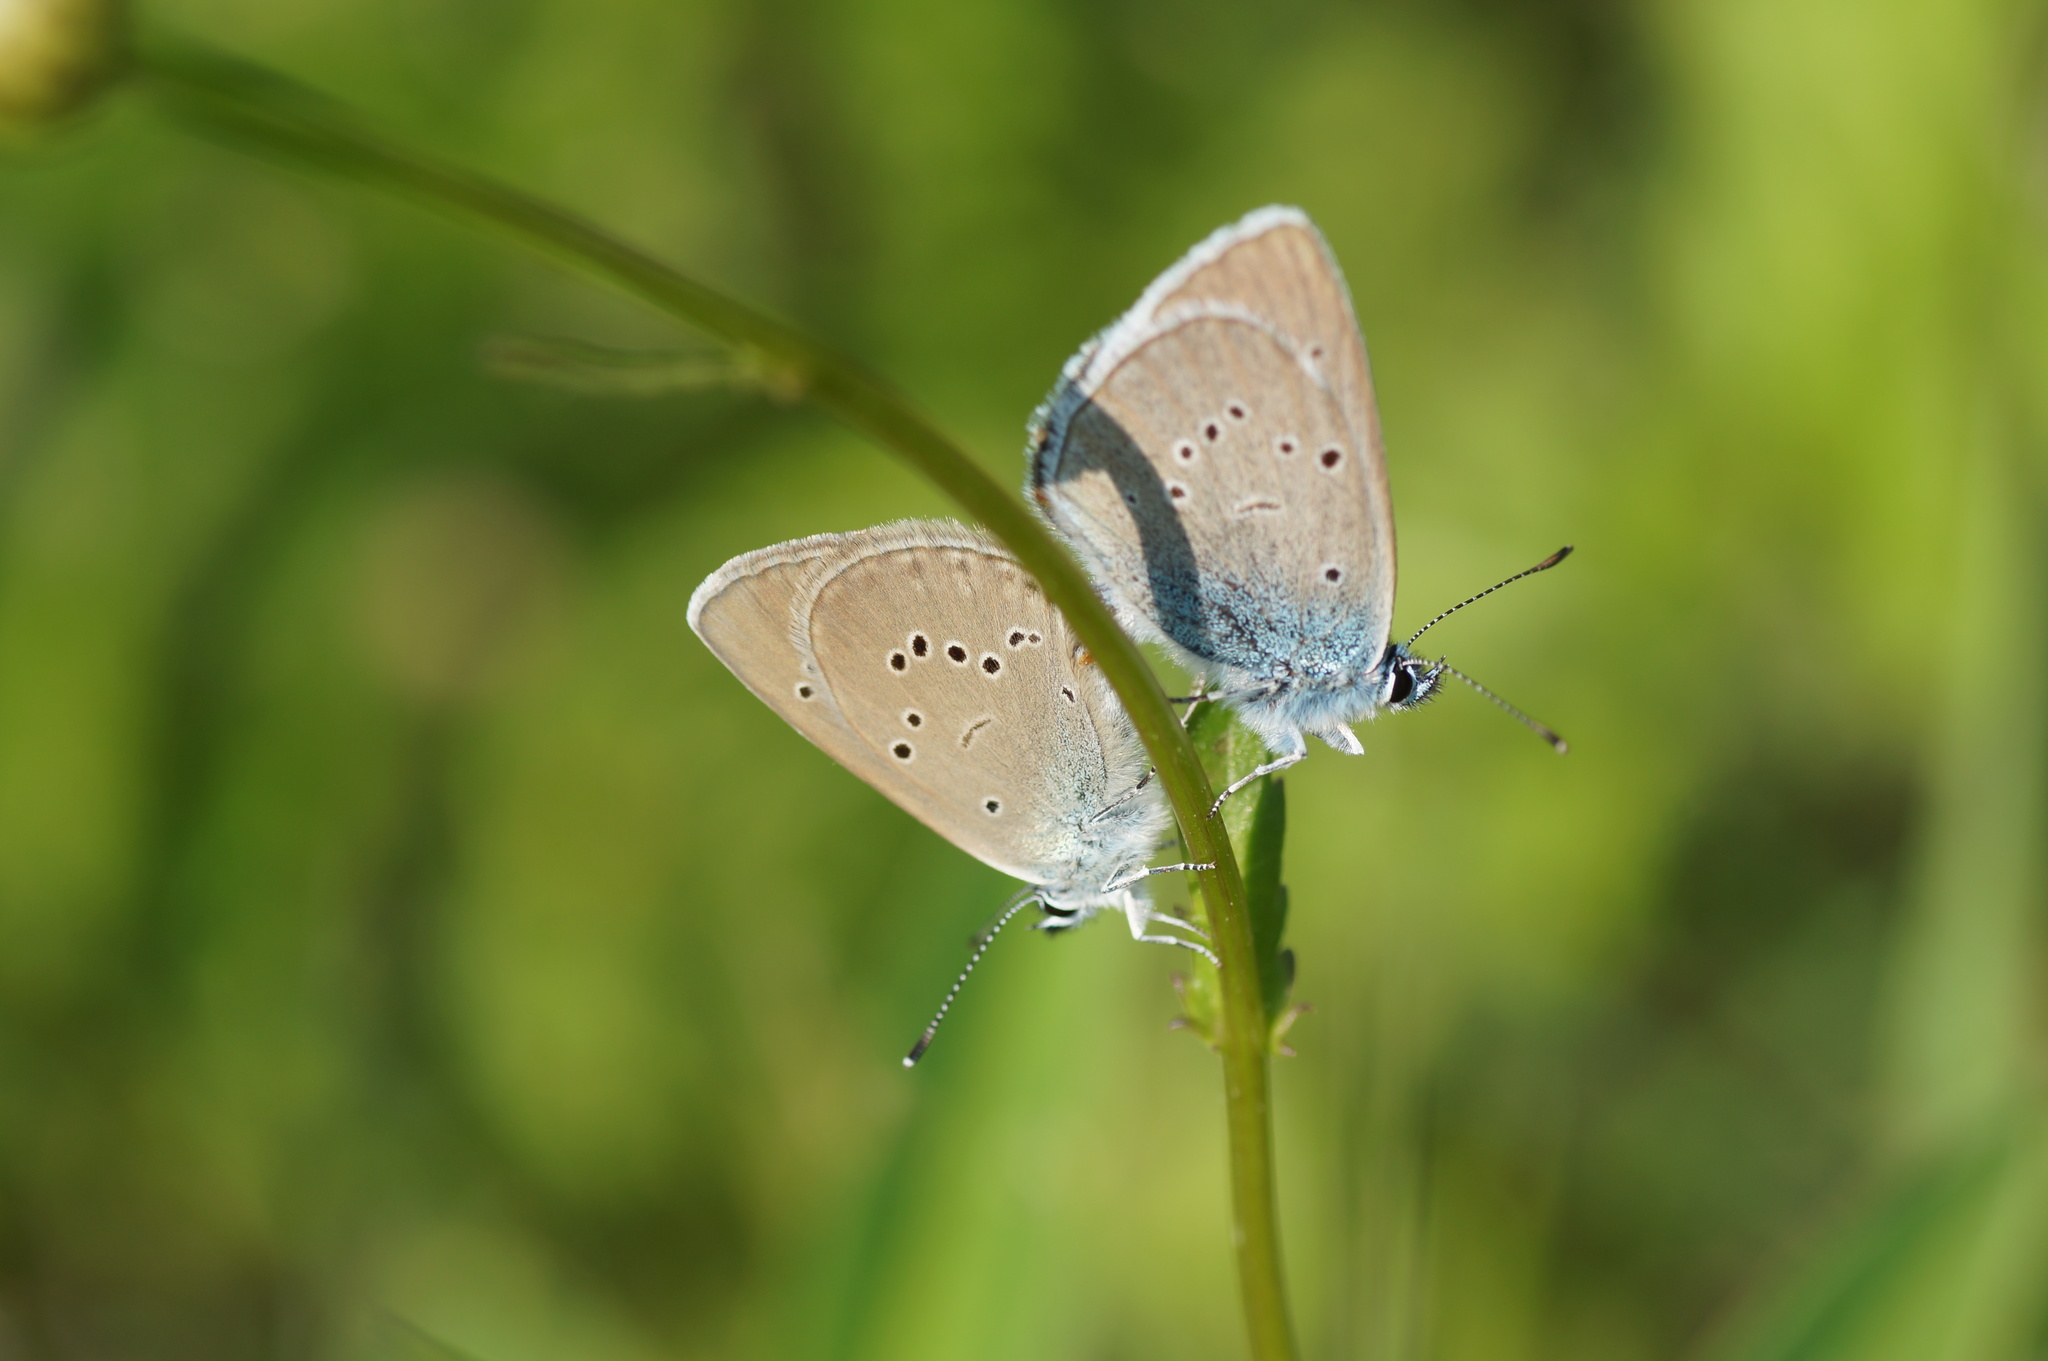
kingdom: Animalia
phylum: Arthropoda
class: Insecta
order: Lepidoptera
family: Lycaenidae
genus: Cyaniris
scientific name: Cyaniris semiargus
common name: Mazarine blue
